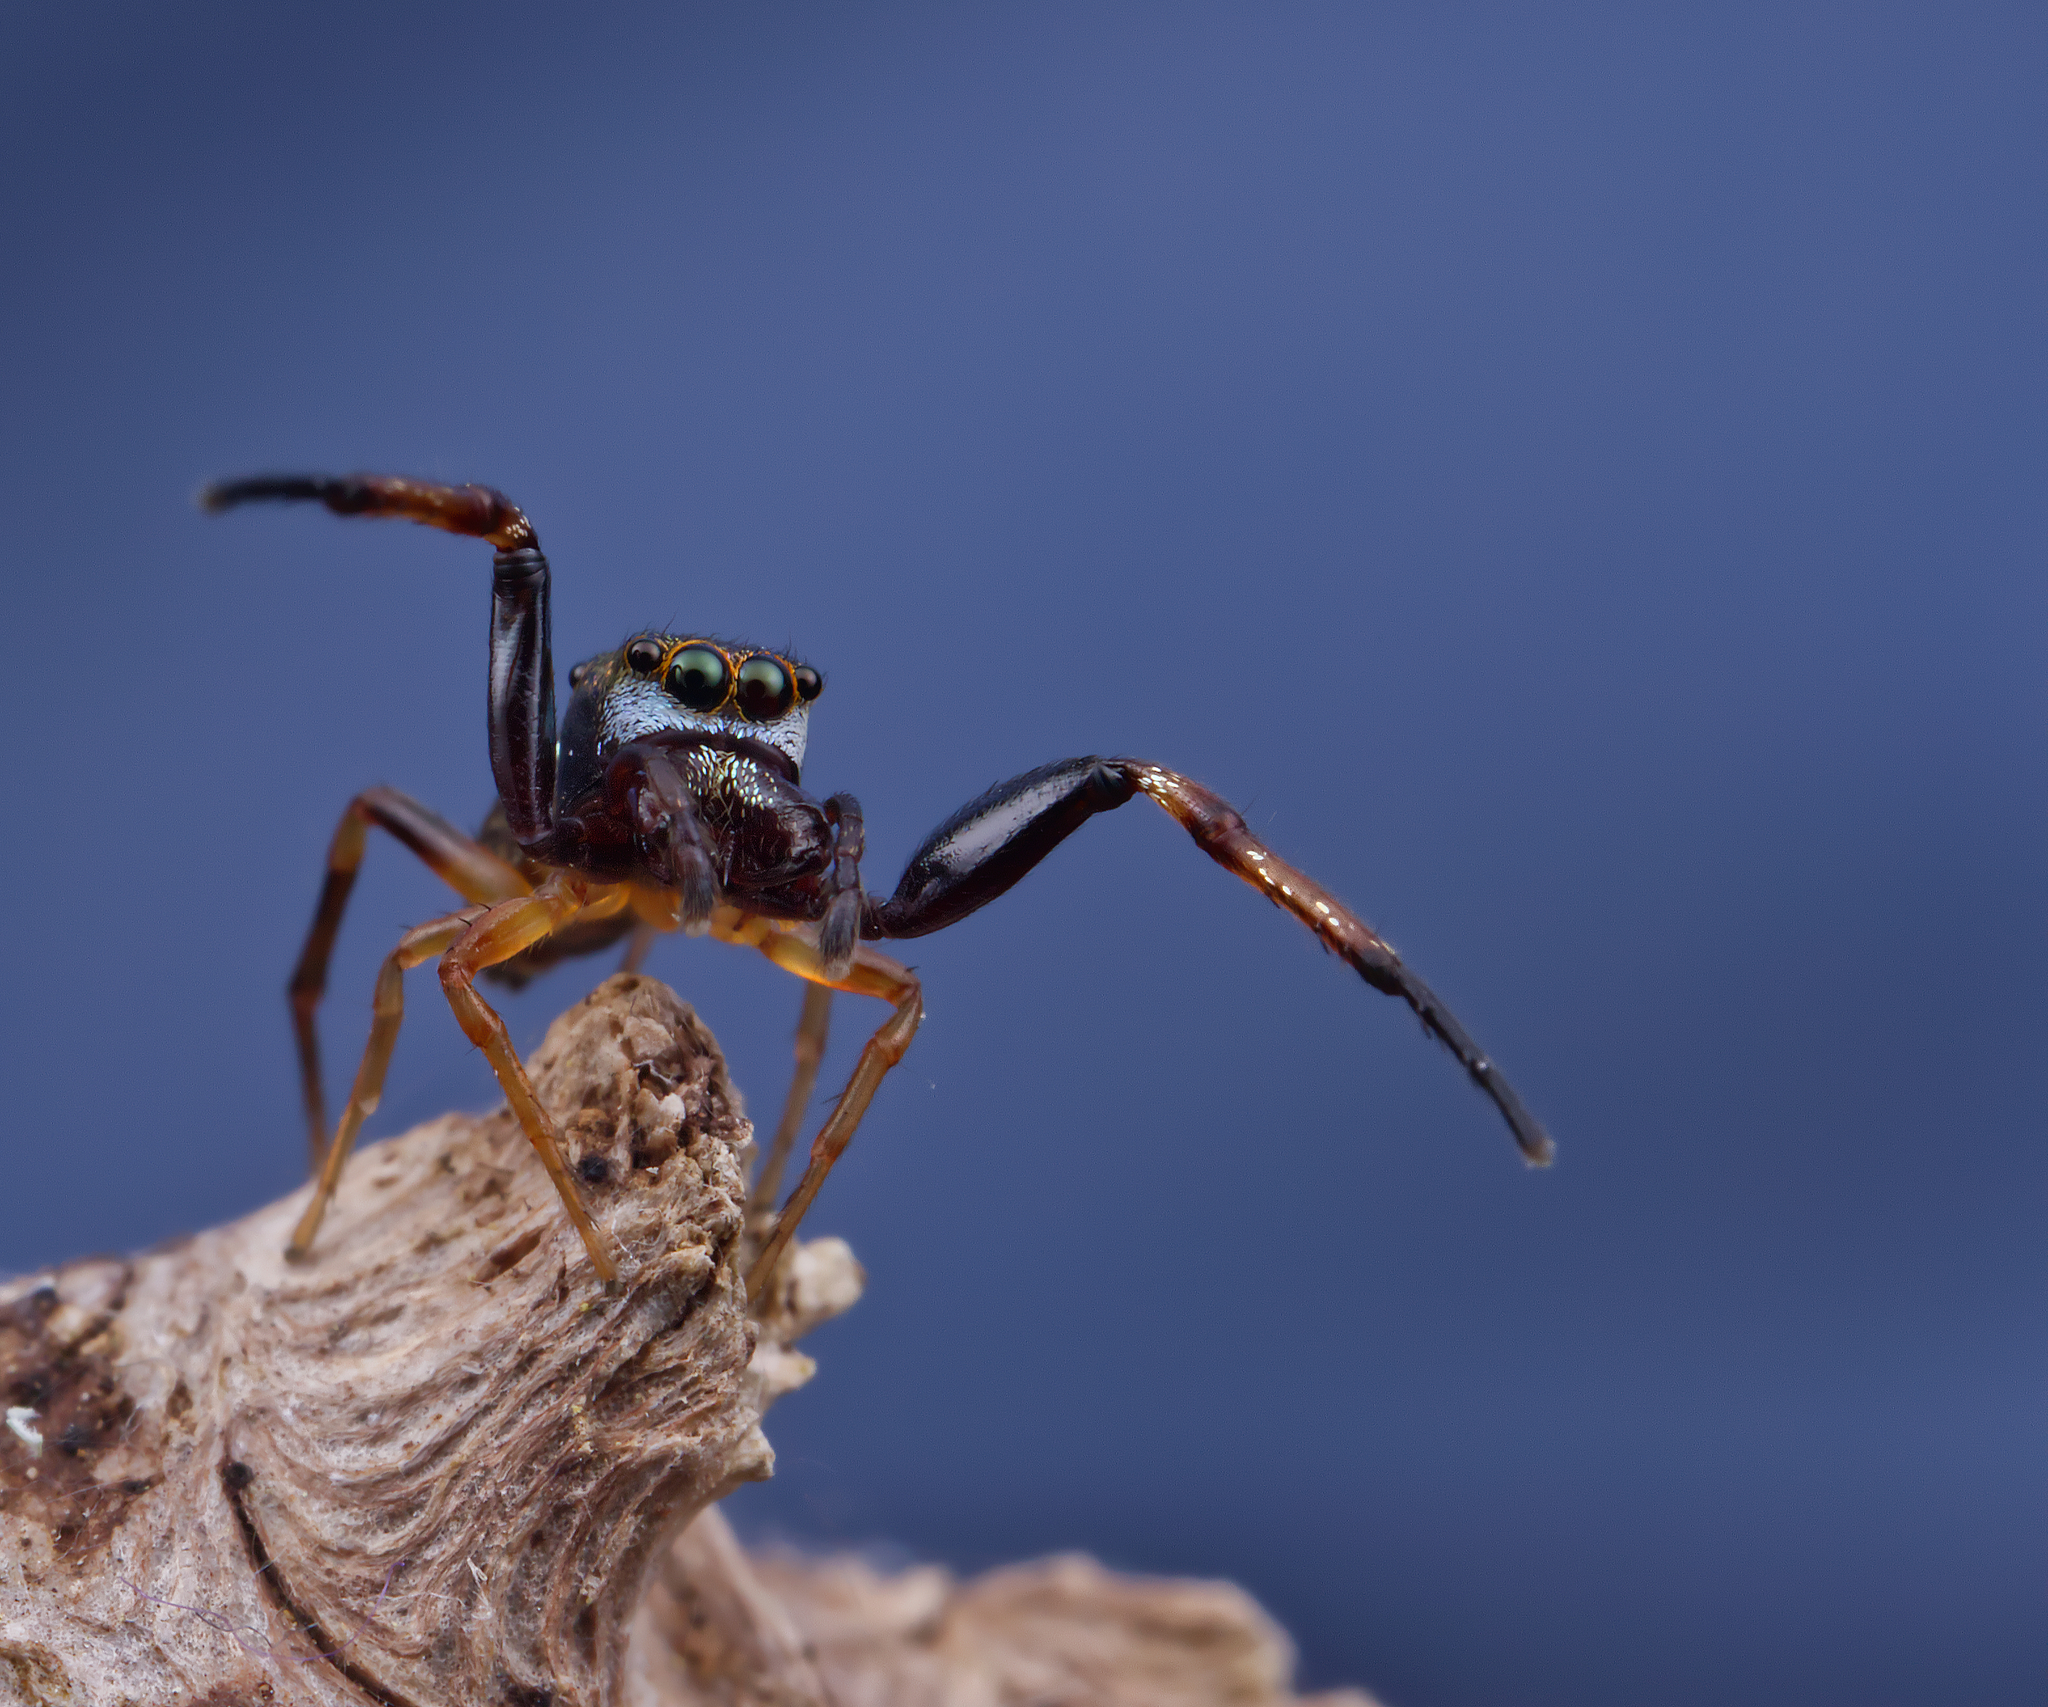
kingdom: Animalia
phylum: Arthropoda
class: Arachnida
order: Araneae
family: Salticidae
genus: Zygoballus
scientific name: Zygoballus rufipes
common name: Jumping spiders
